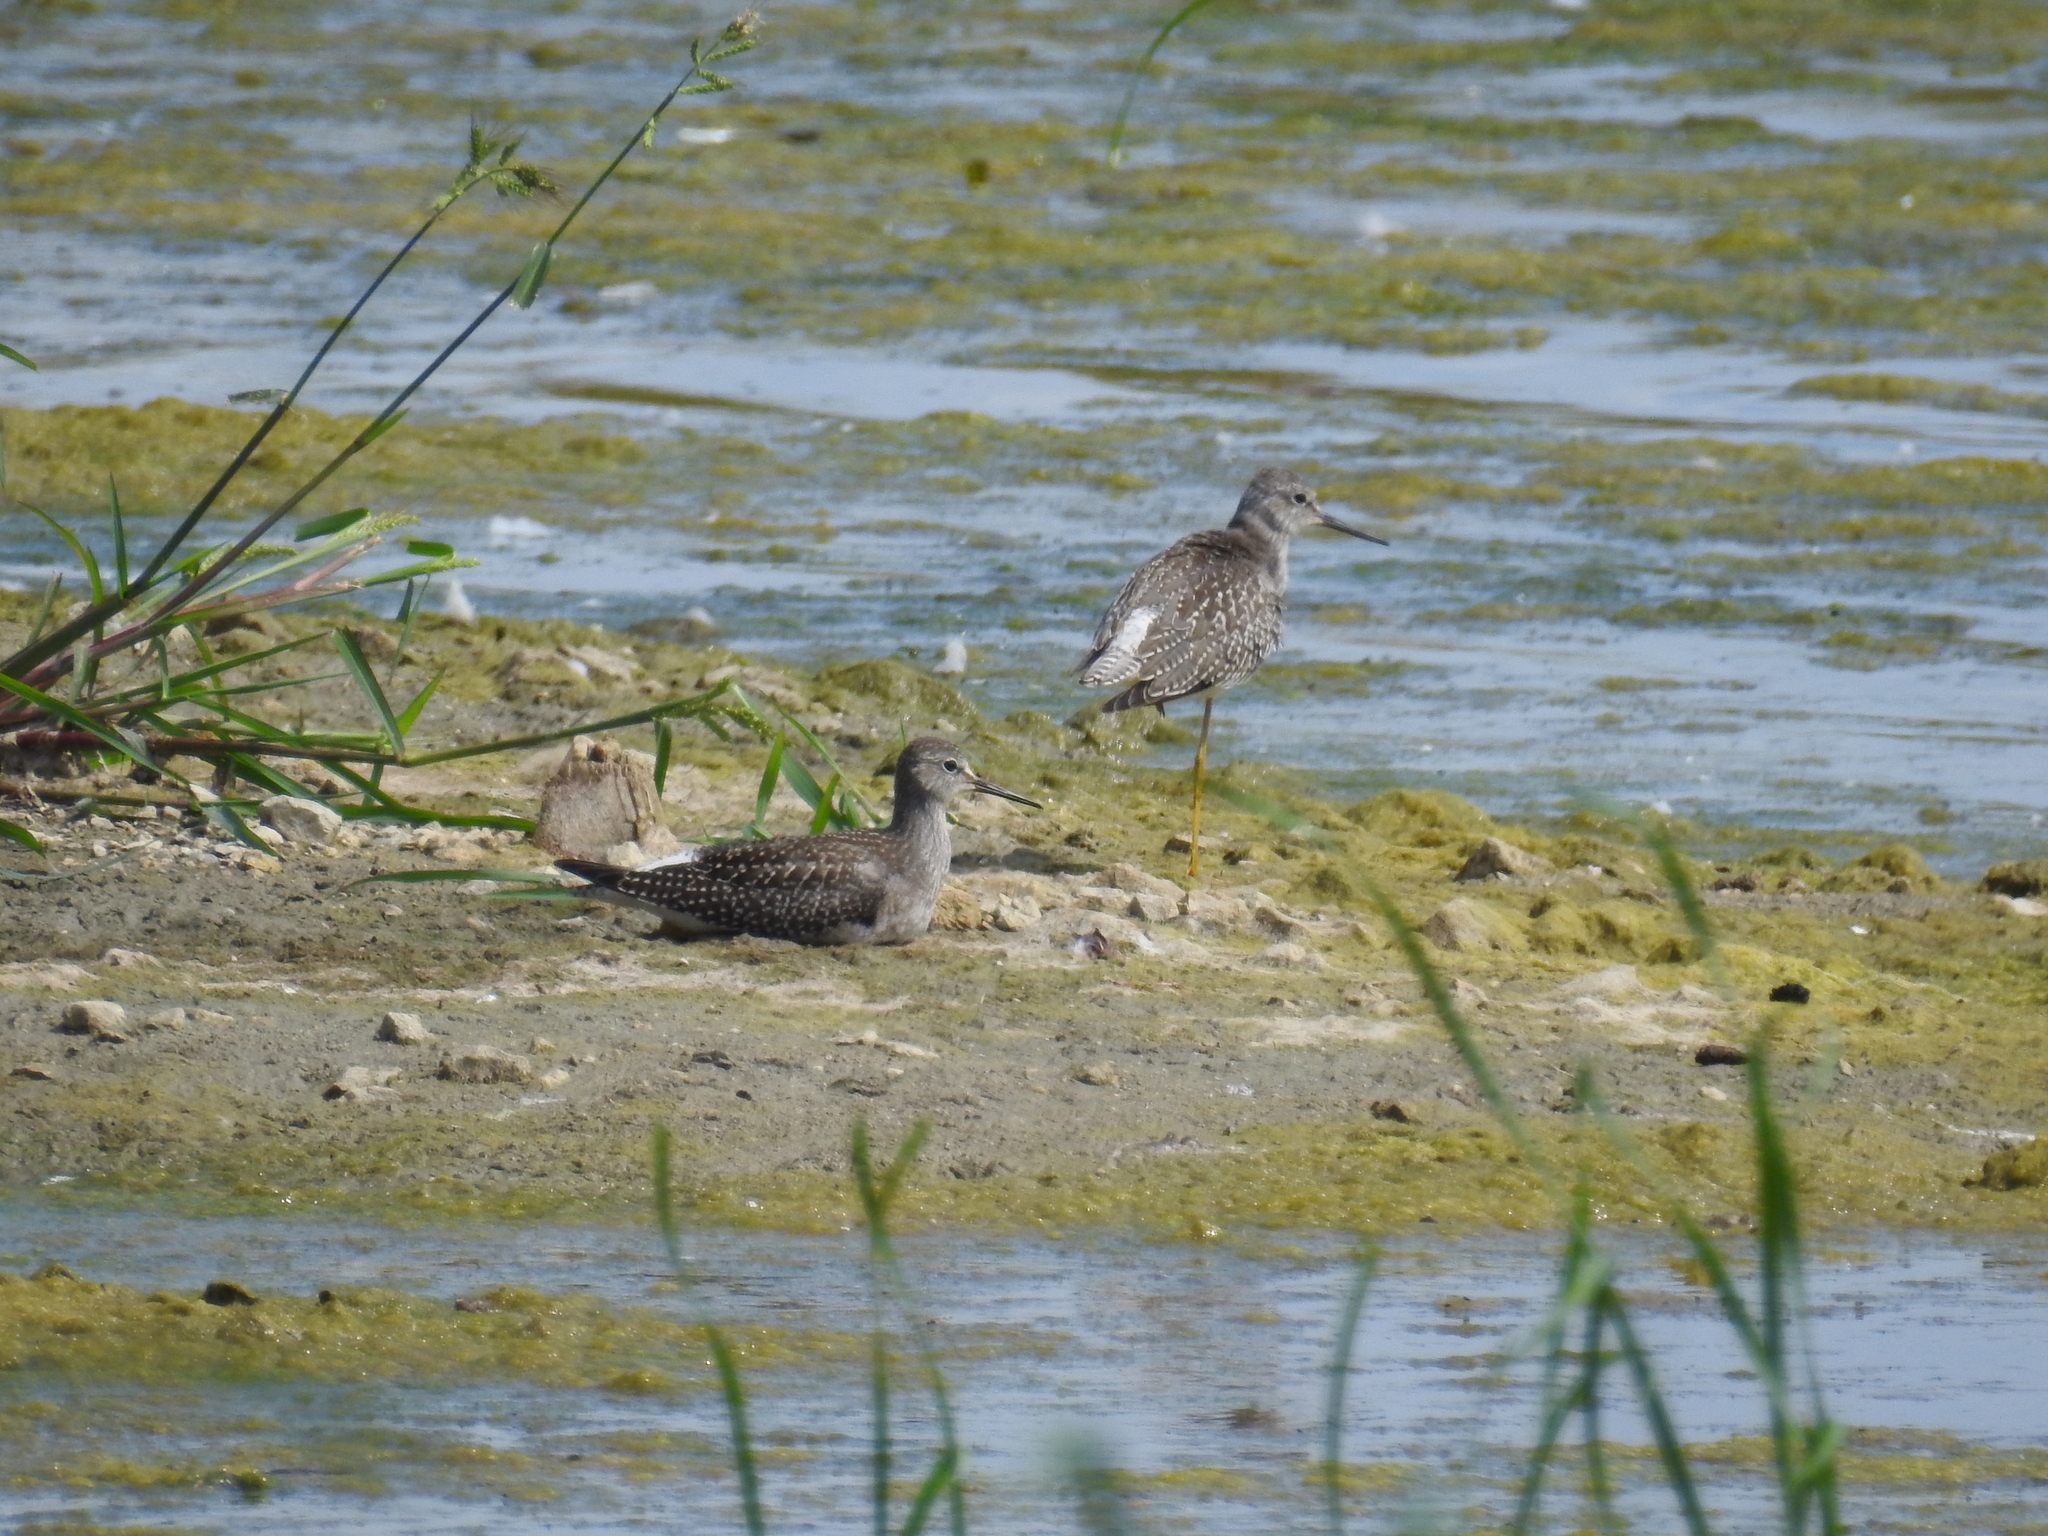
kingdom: Animalia
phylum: Chordata
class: Aves
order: Charadriiformes
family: Scolopacidae
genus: Tringa
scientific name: Tringa flavipes
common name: Lesser yellowlegs
